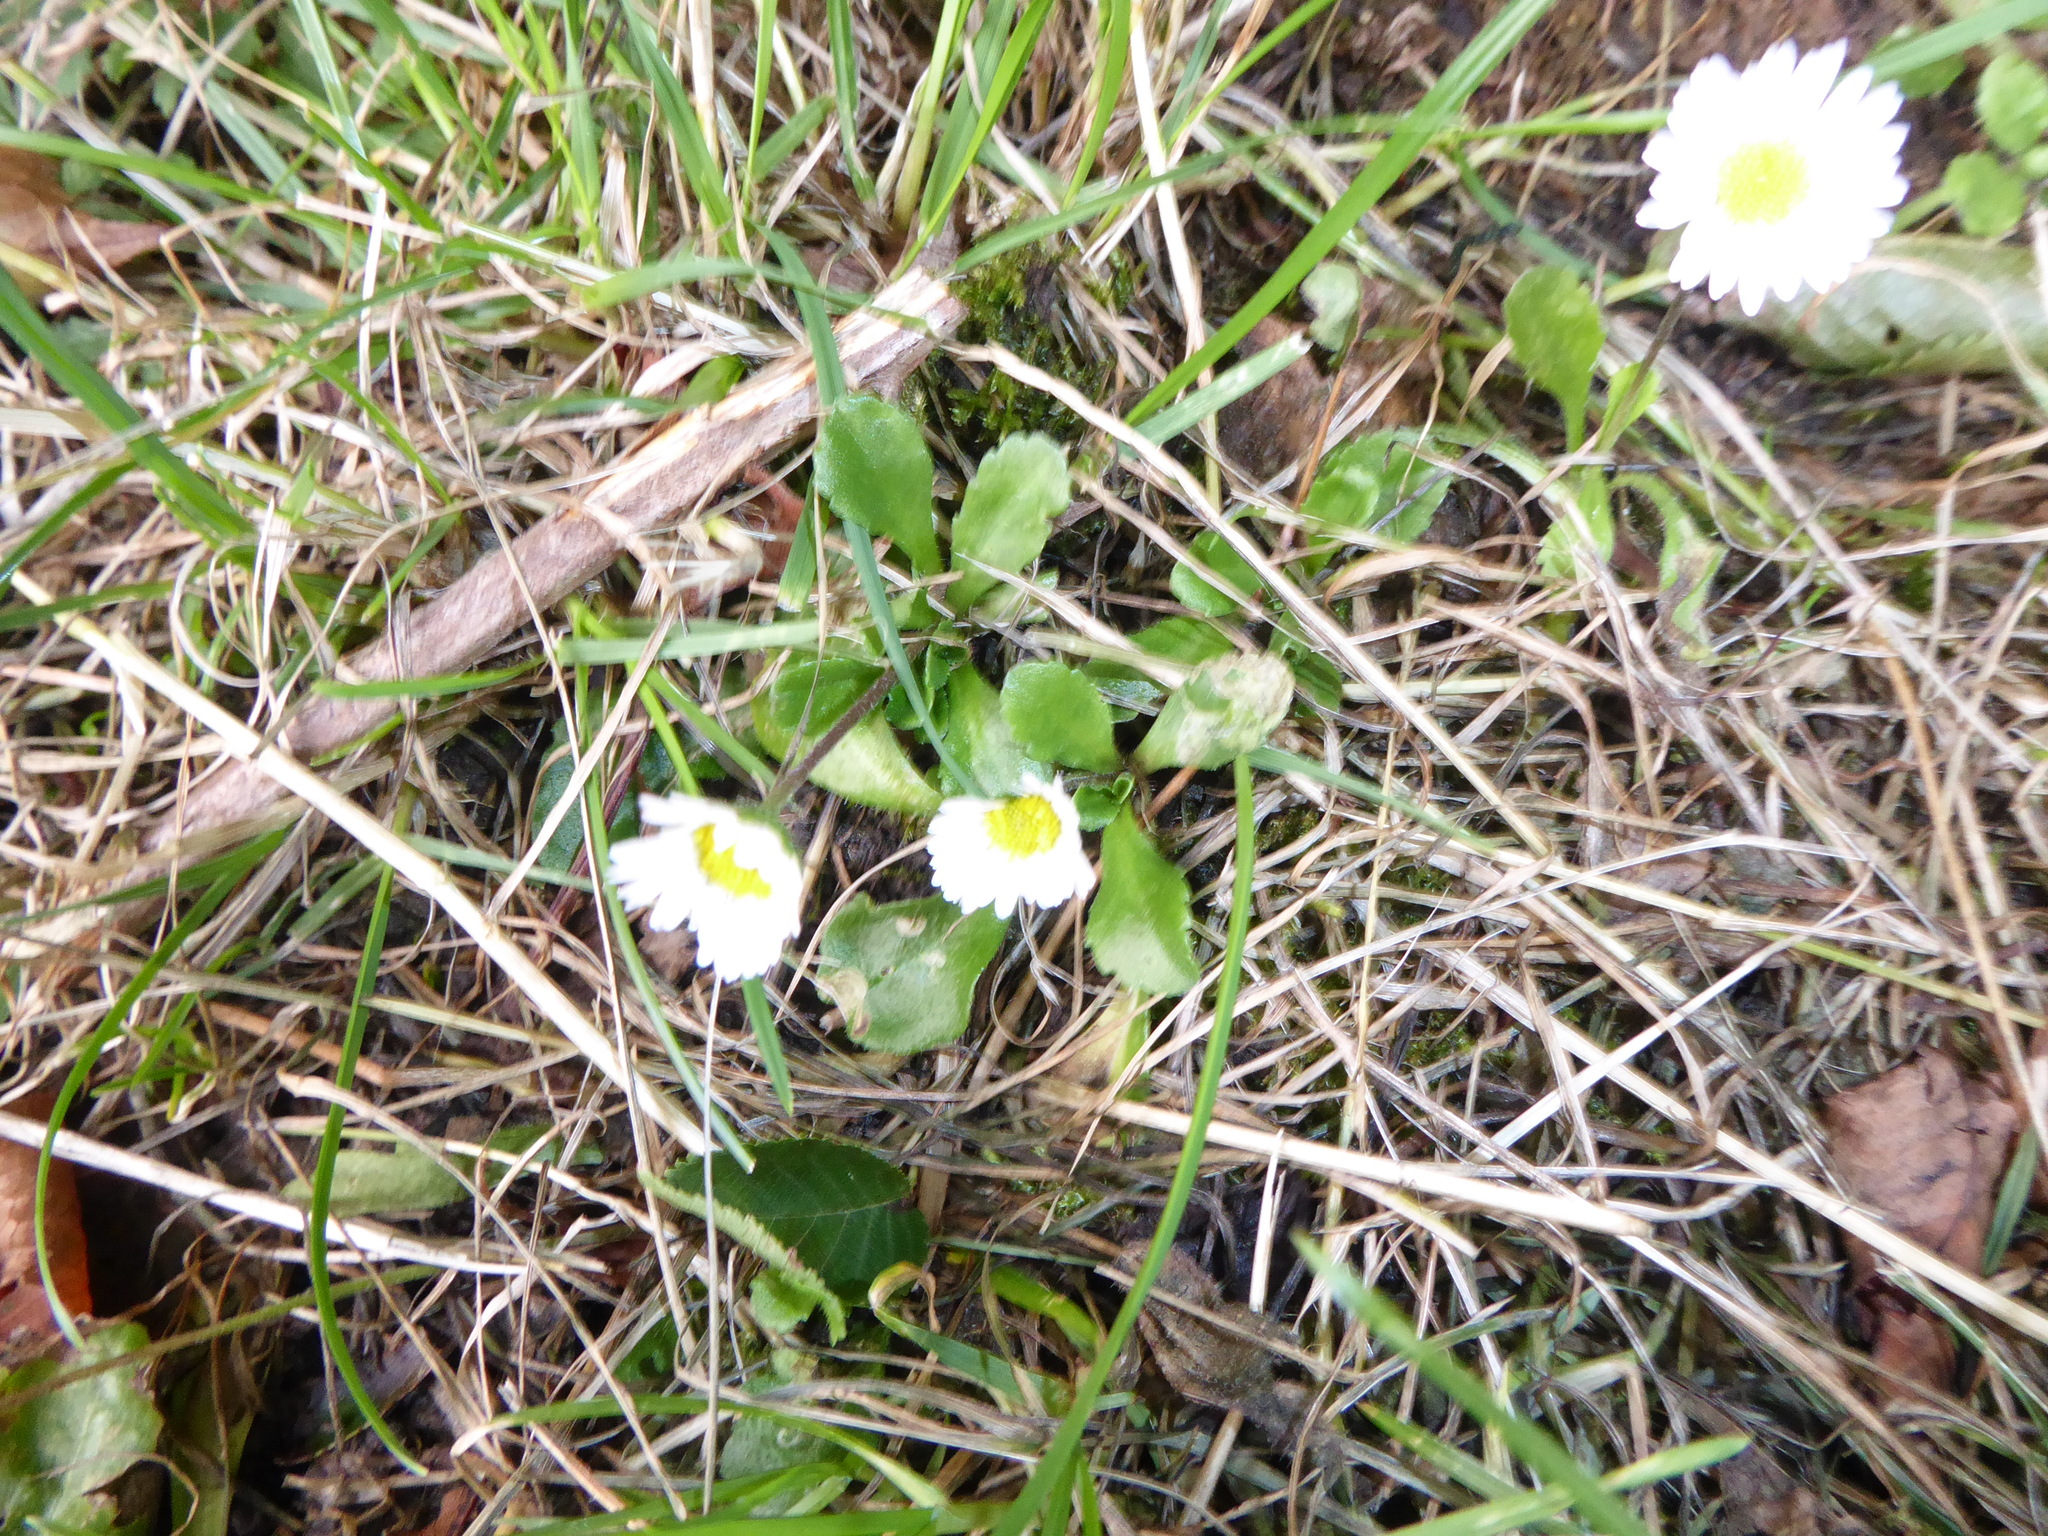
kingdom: Plantae
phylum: Tracheophyta
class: Magnoliopsida
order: Asterales
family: Asteraceae
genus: Bellis
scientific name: Bellis perennis
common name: Lawndaisy
